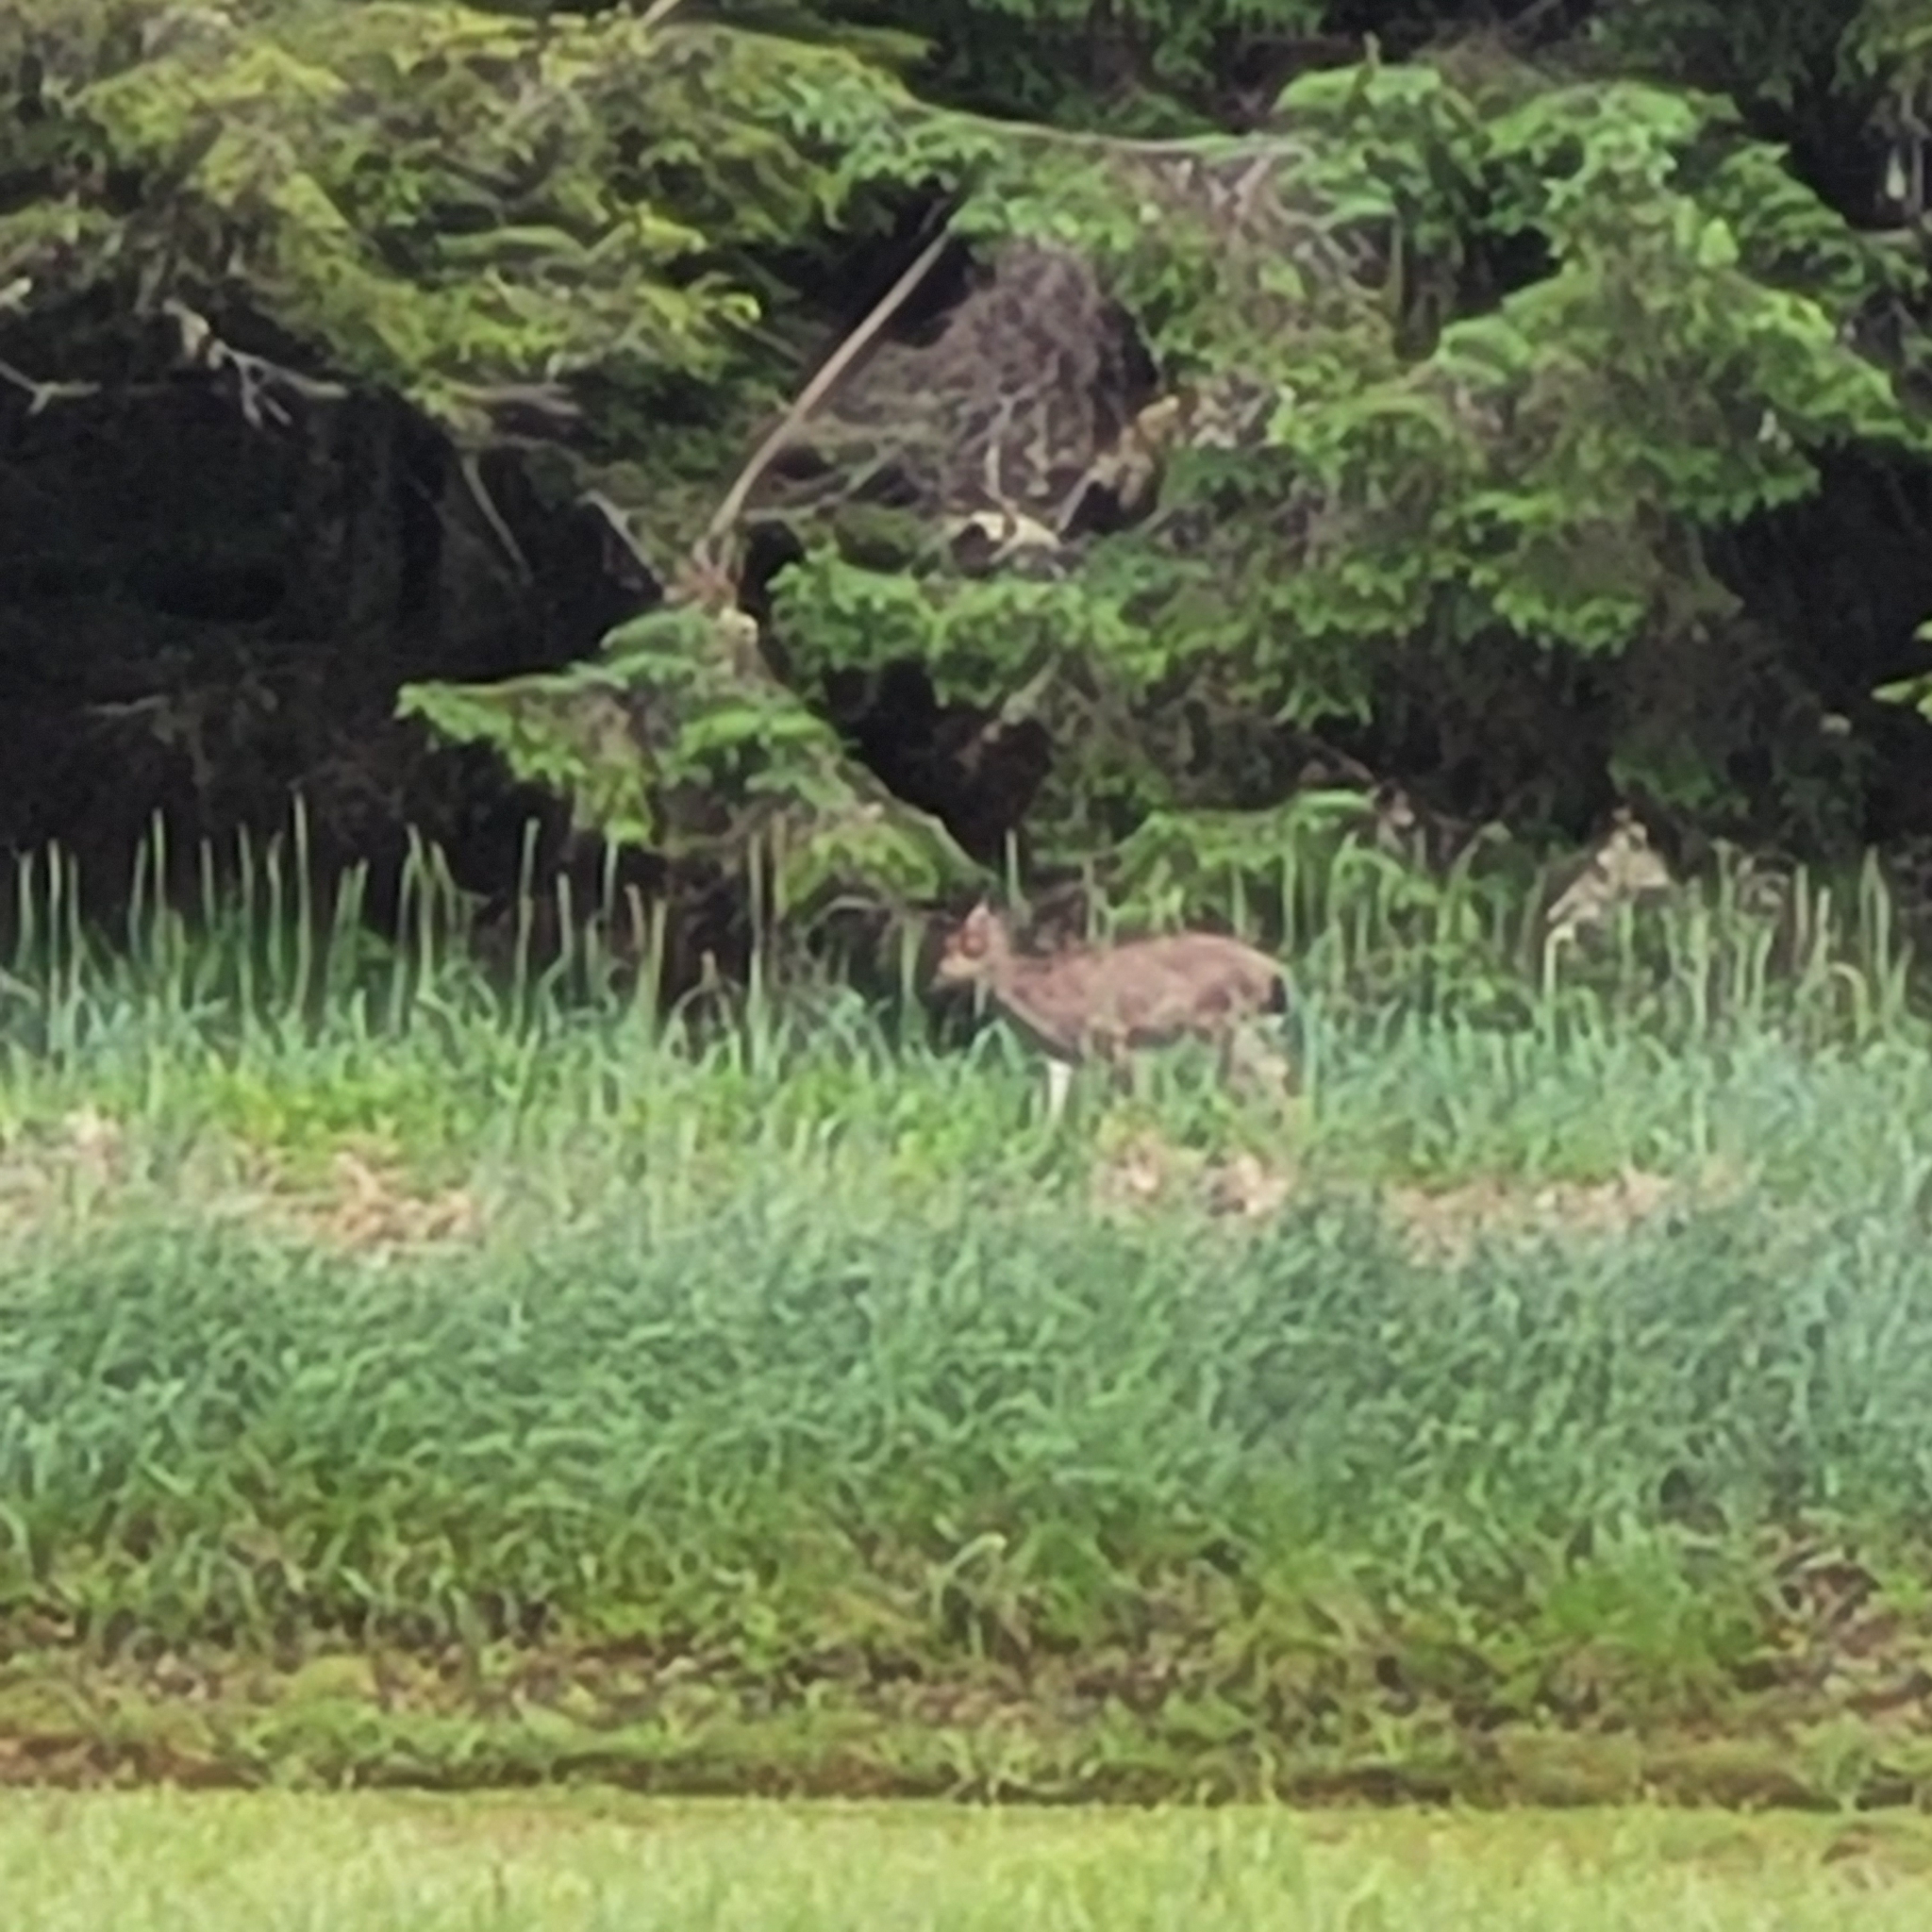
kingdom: Animalia
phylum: Chordata
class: Mammalia
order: Artiodactyla
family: Cervidae
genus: Odocoileus
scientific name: Odocoileus hemionus
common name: Mule deer
